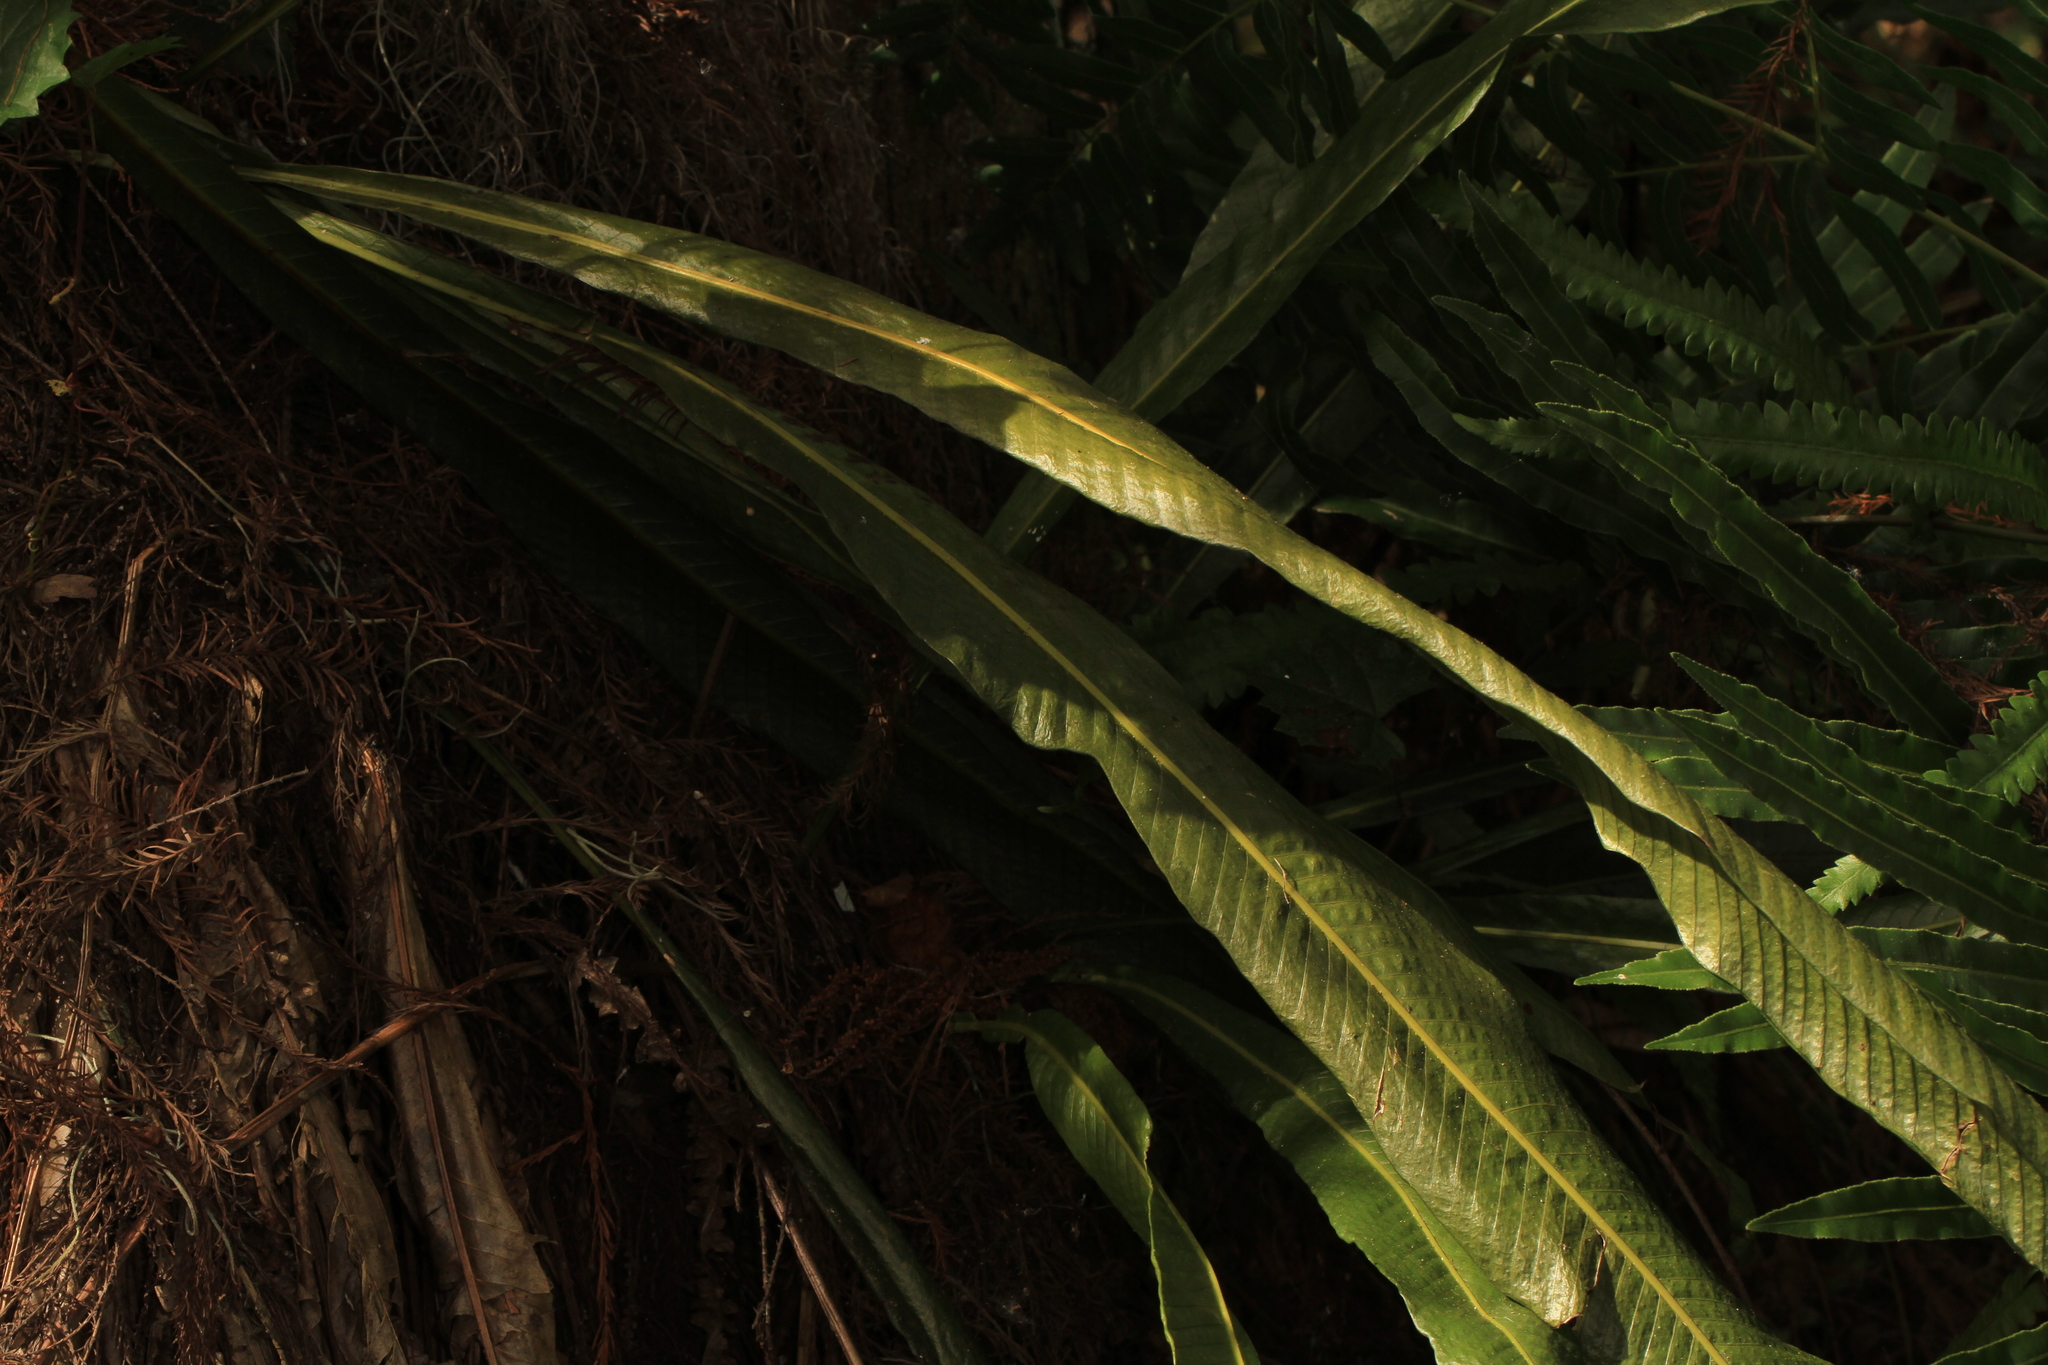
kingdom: Plantae
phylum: Tracheophyta
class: Polypodiopsida
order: Polypodiales
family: Polypodiaceae
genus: Campyloneurum
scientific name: Campyloneurum phyllitidis
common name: Cow-tongue fern
